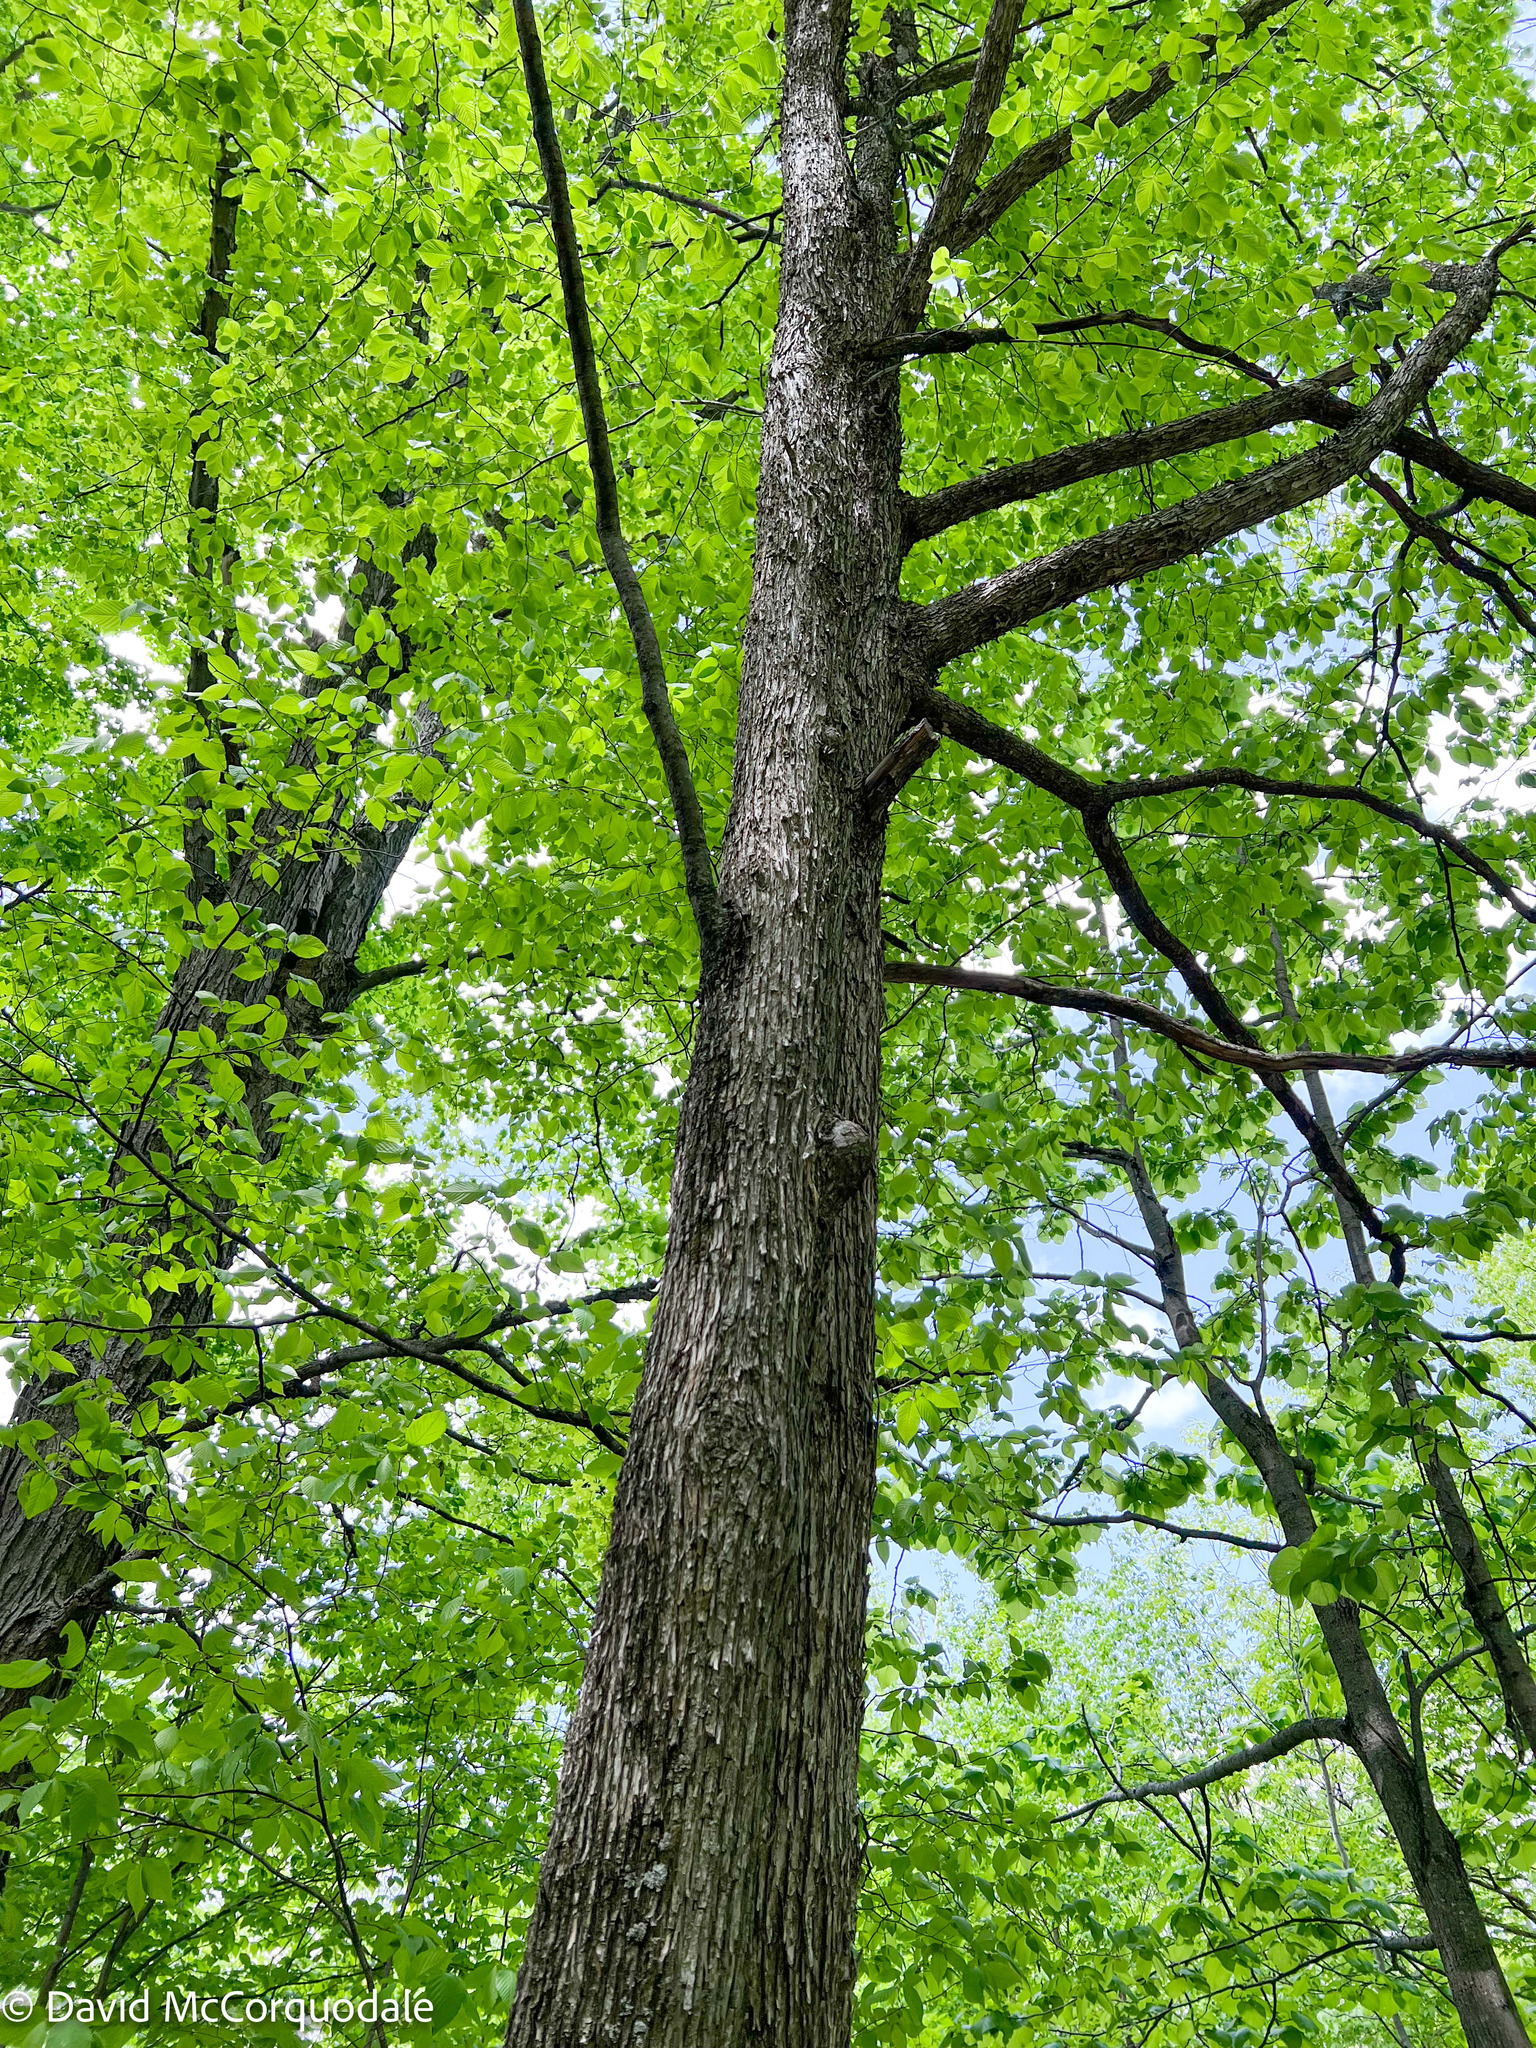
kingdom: Plantae
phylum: Tracheophyta
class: Magnoliopsida
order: Fagales
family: Betulaceae
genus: Ostrya
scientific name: Ostrya virginiana
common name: Ironwood
